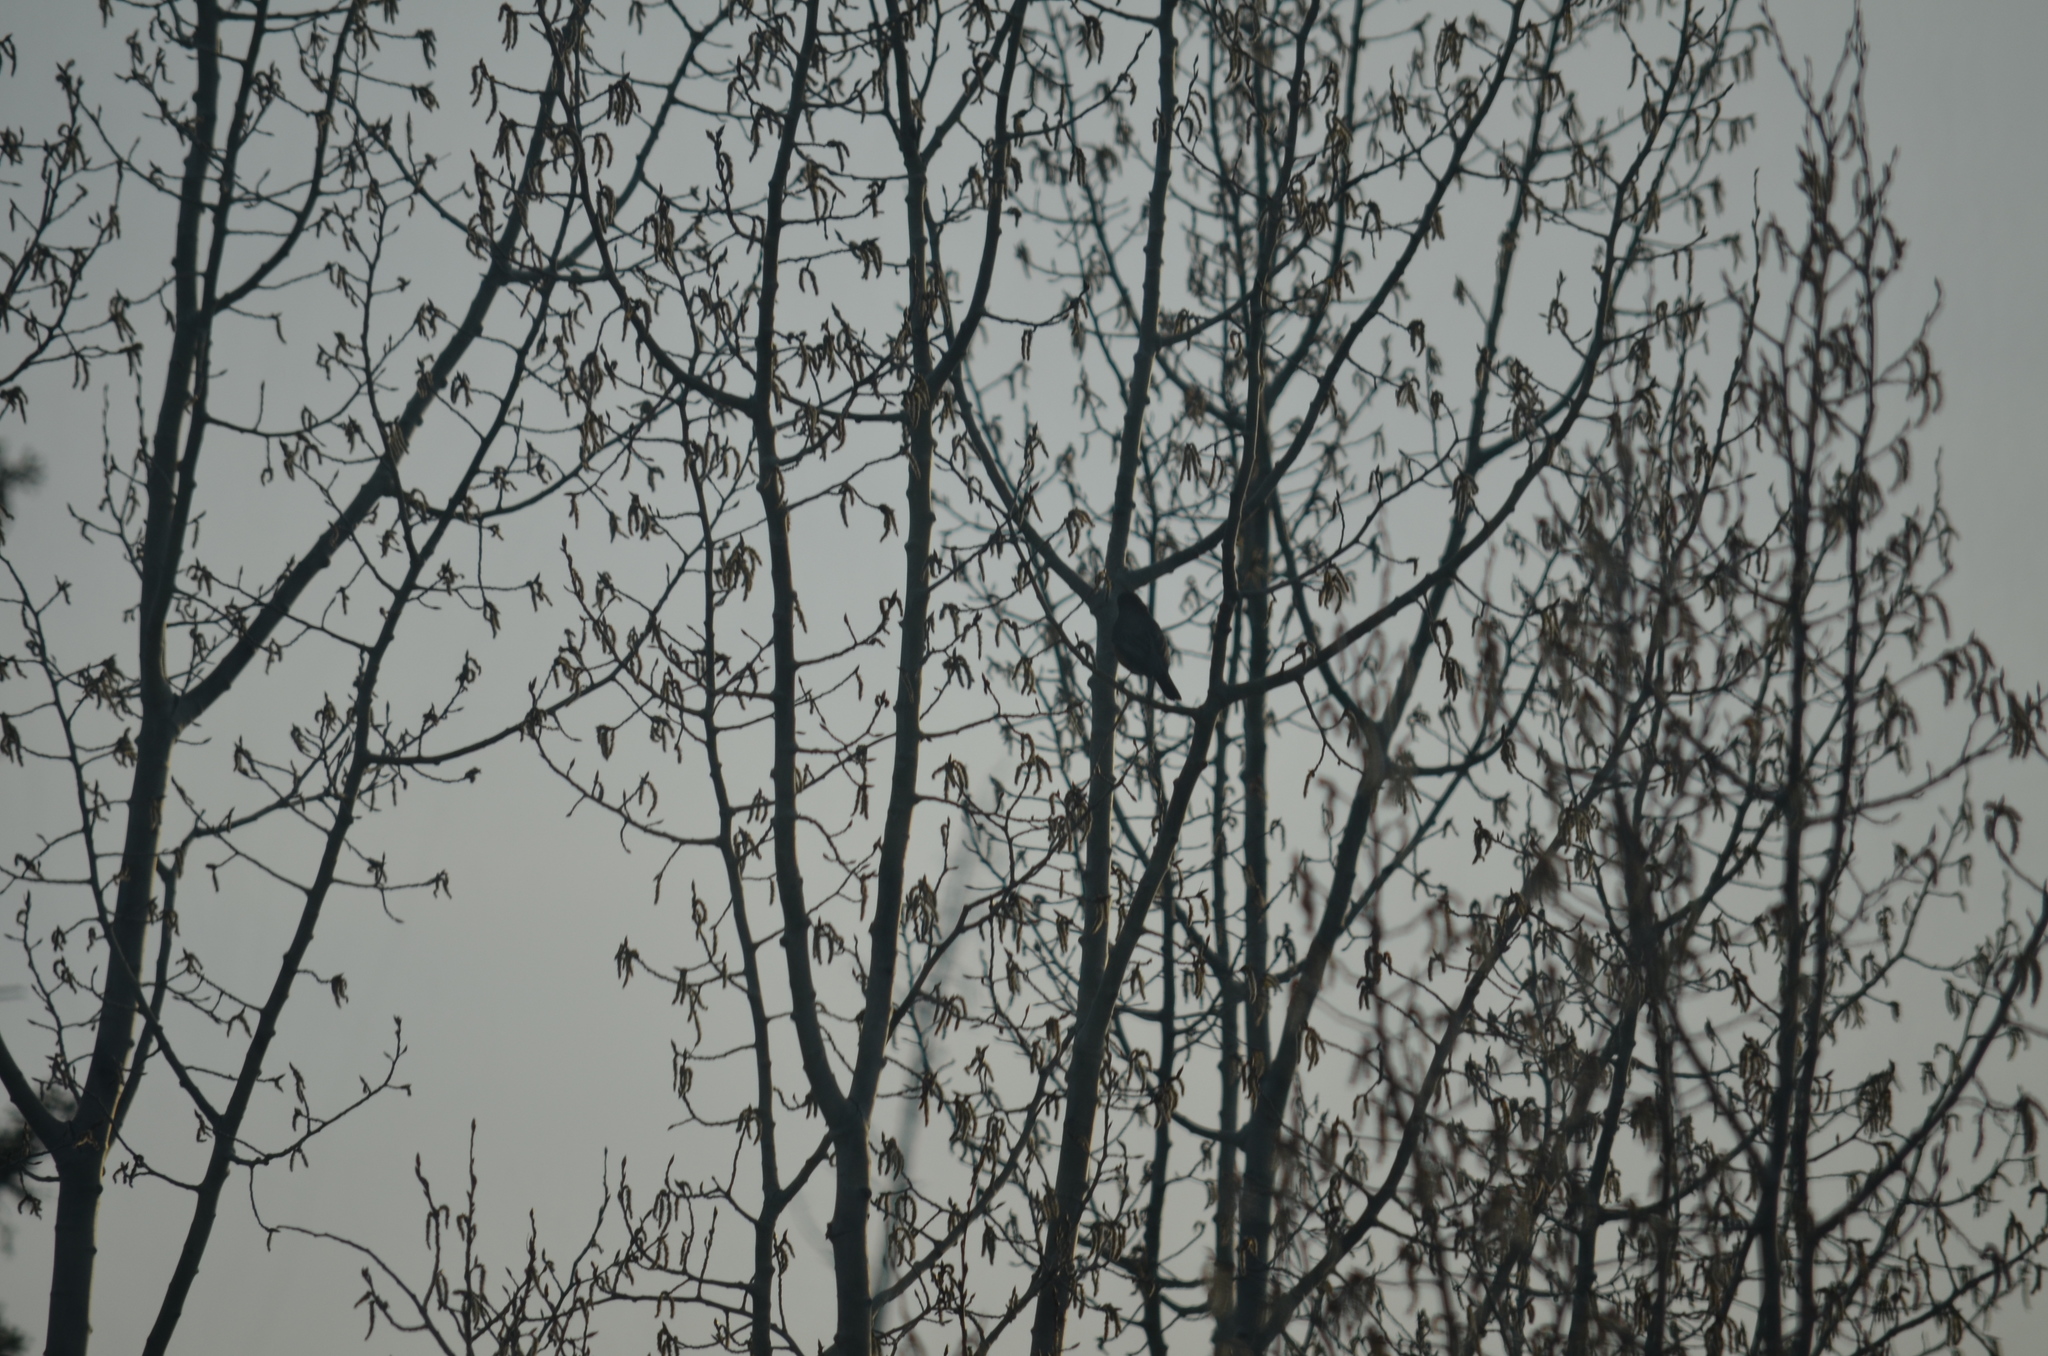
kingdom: Animalia
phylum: Chordata
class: Aves
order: Passeriformes
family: Turdidae
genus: Turdus
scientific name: Turdus migratorius
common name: American robin
